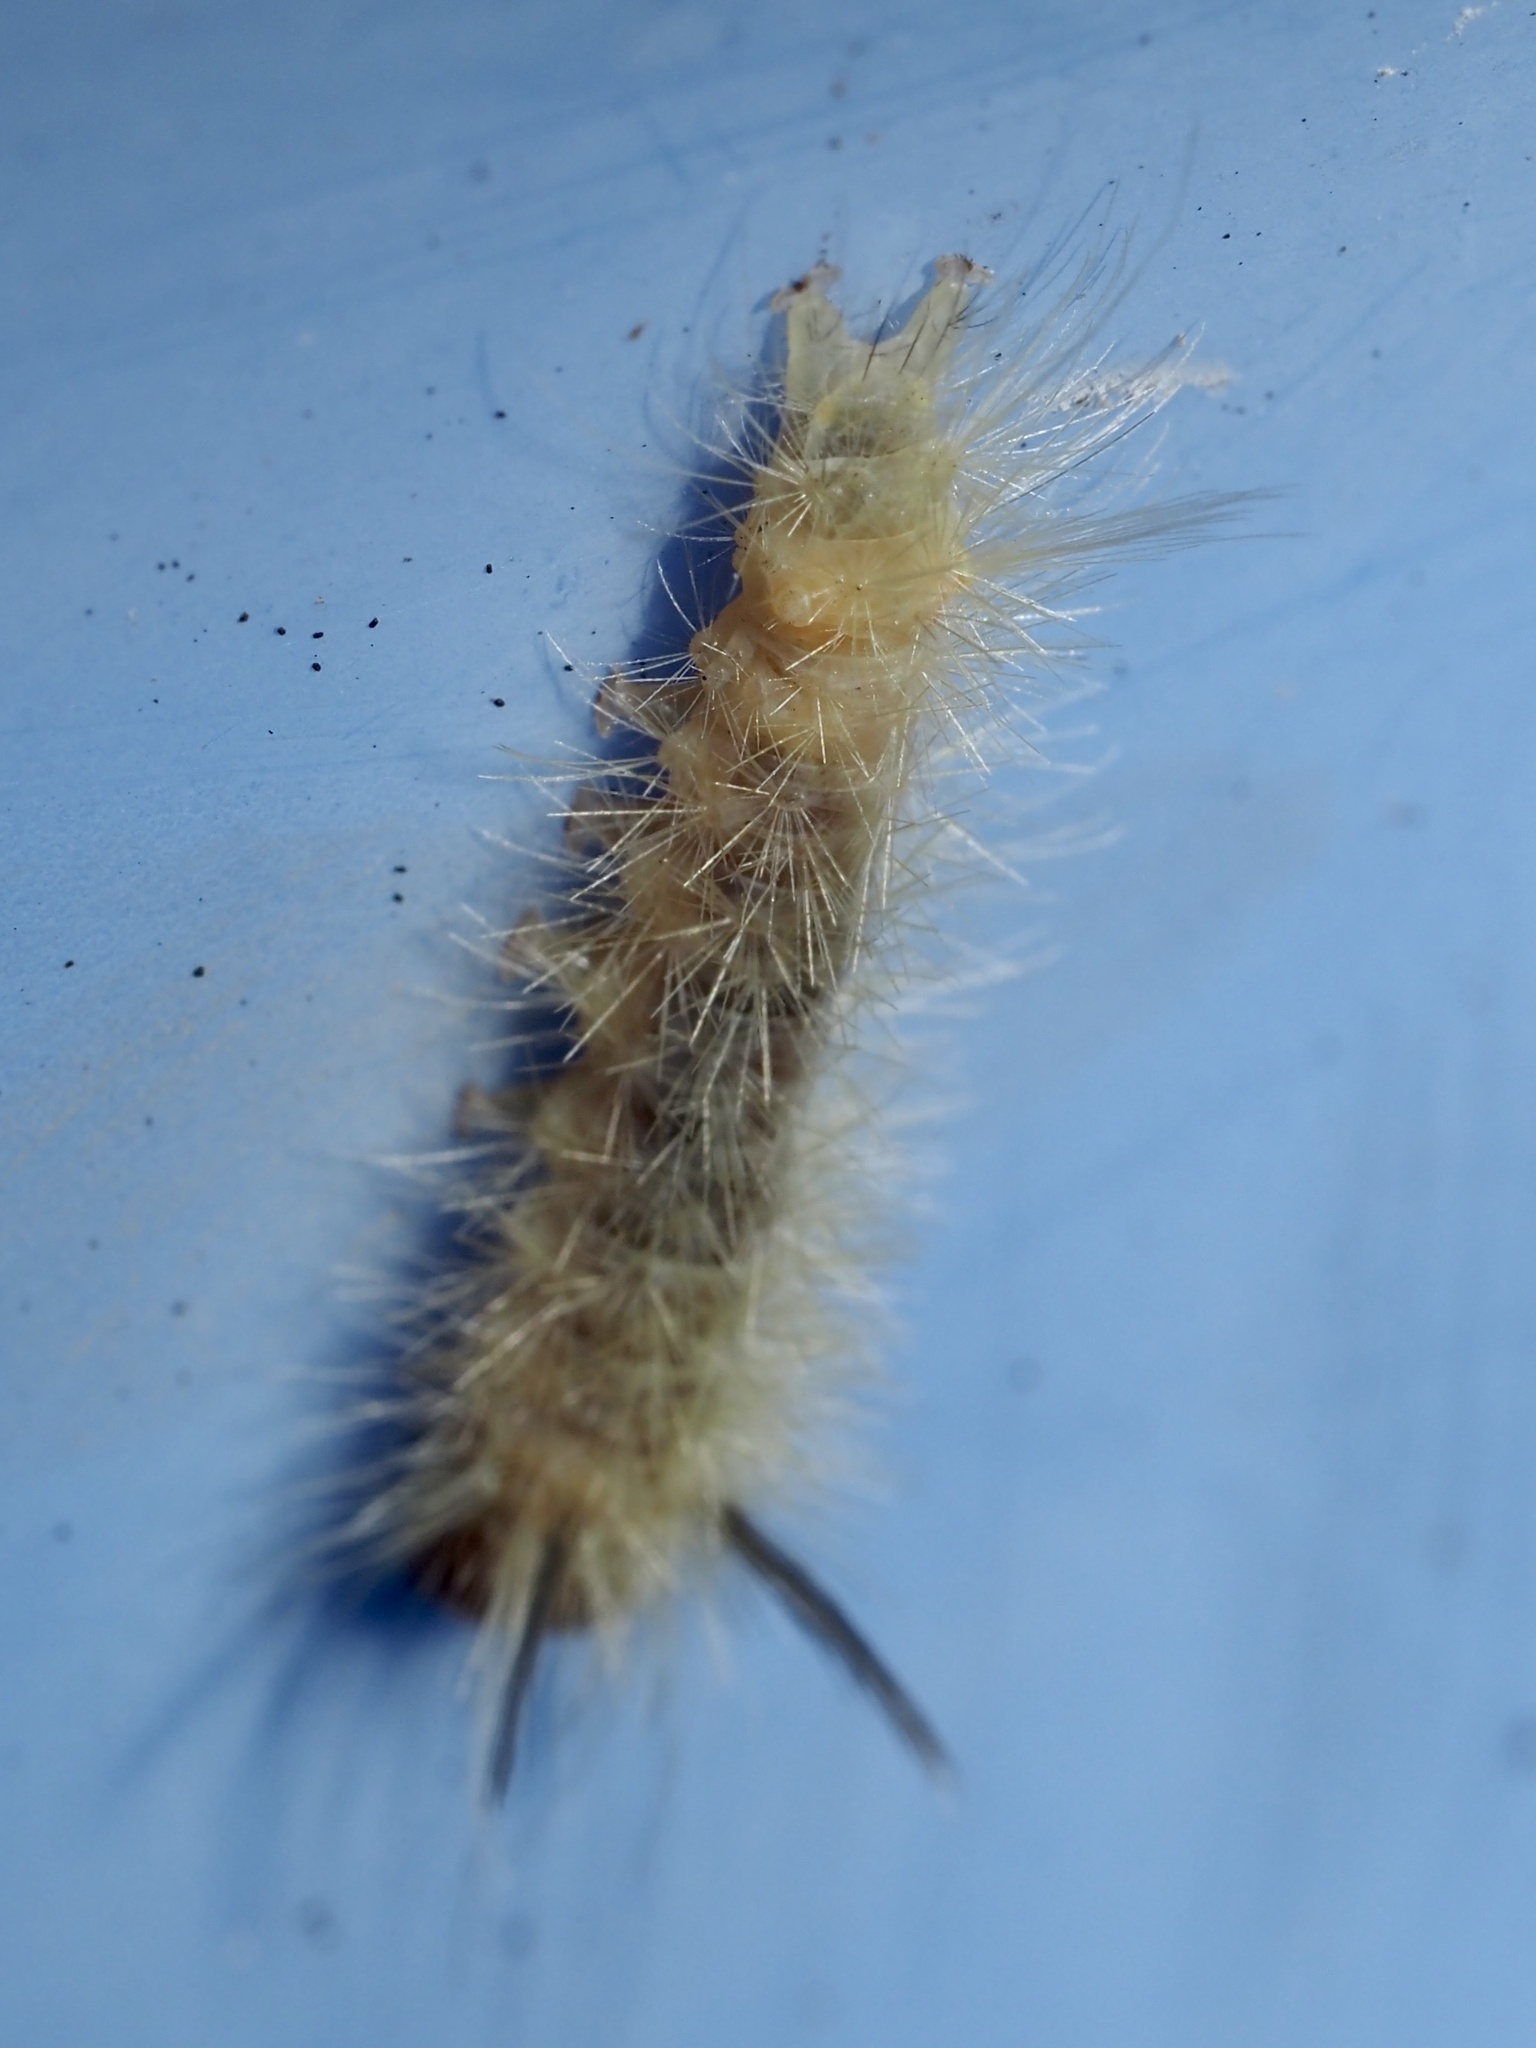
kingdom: Animalia
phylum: Arthropoda
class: Insecta
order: Lepidoptera
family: Erebidae
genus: Halysidota
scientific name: Halysidota tessellaris
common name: Banded tussock moth
